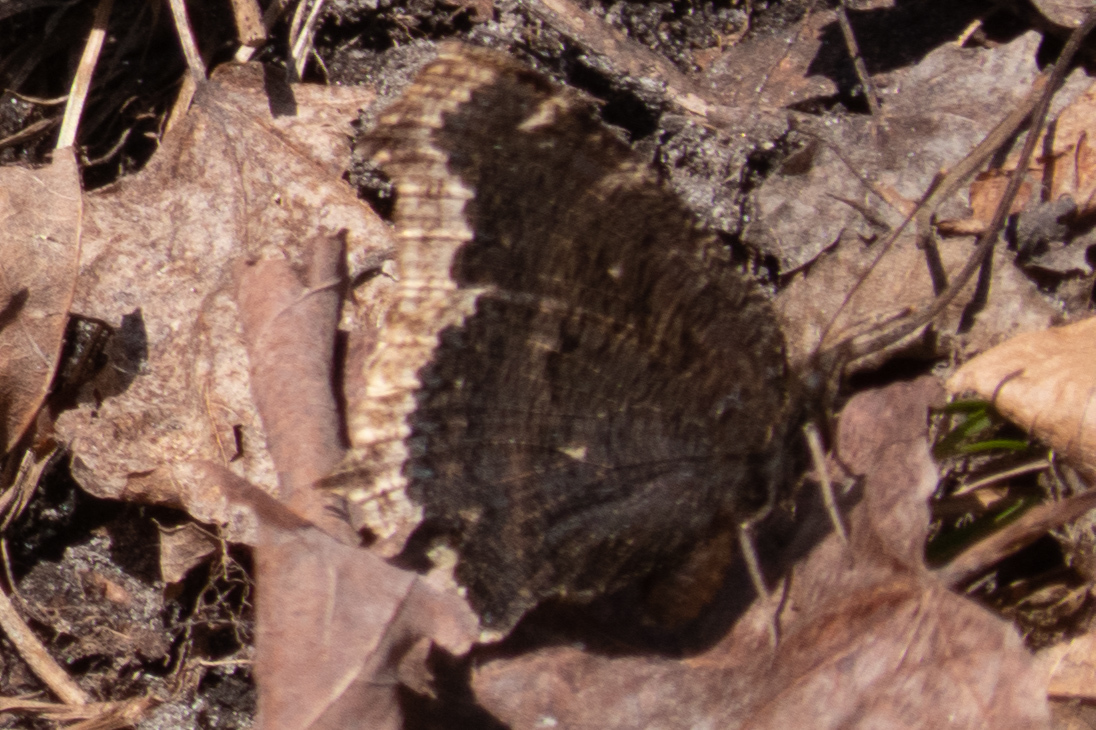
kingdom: Animalia
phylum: Arthropoda
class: Insecta
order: Lepidoptera
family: Nymphalidae
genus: Nymphalis
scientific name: Nymphalis antiopa
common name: Camberwell beauty
